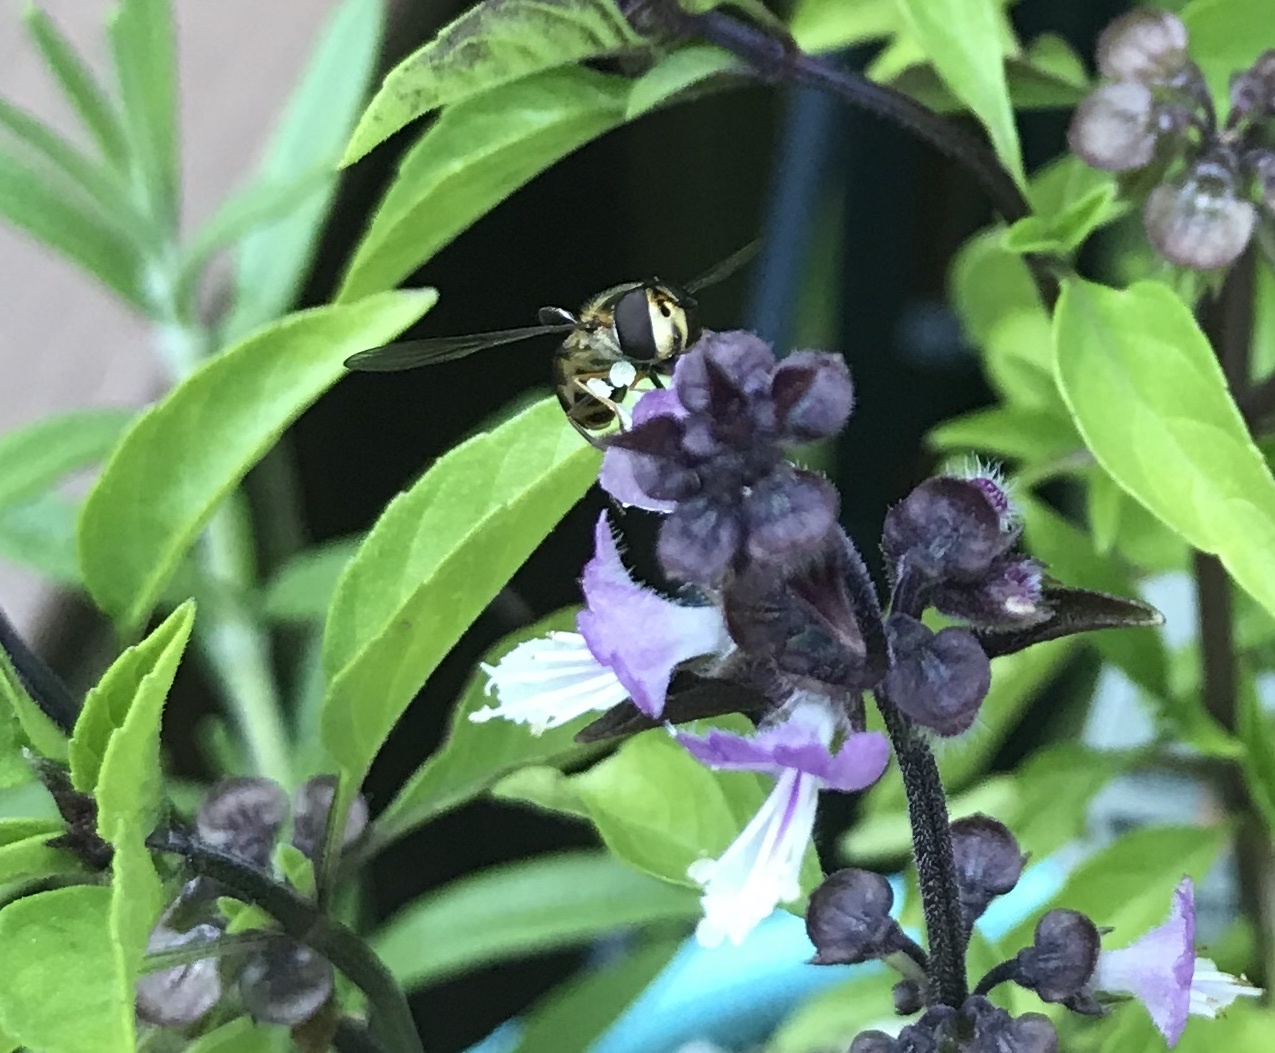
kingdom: Animalia
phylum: Arthropoda
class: Insecta
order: Diptera
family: Syrphidae
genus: Eupeodes
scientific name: Eupeodes
